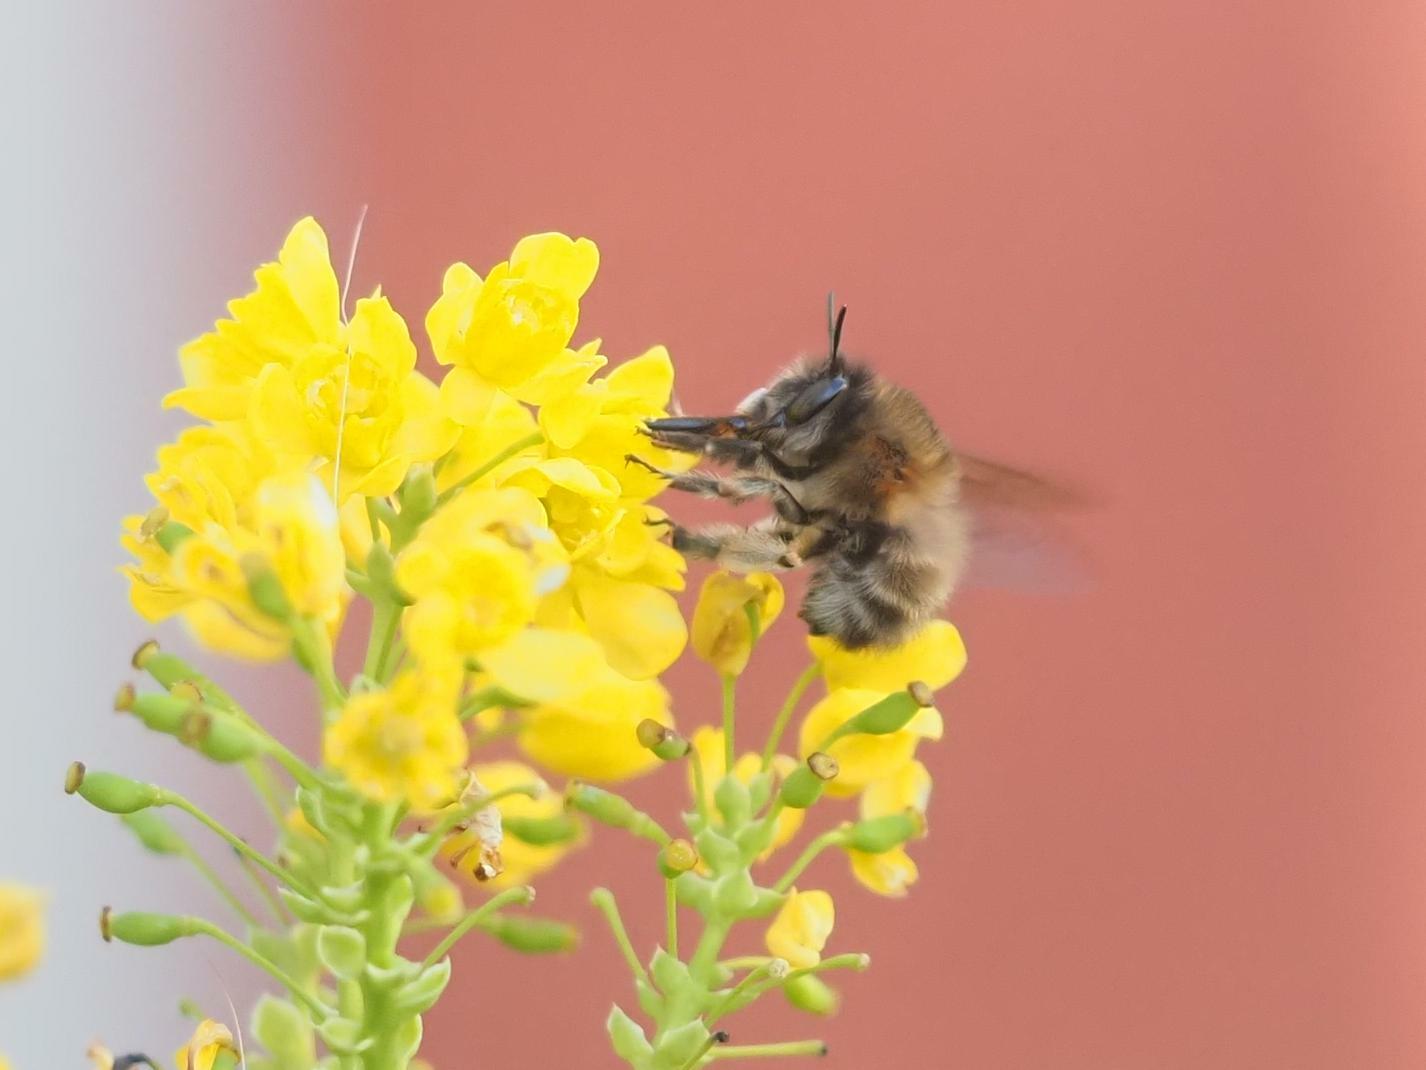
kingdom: Animalia
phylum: Arthropoda
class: Insecta
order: Hymenoptera
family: Apidae
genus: Anthophora
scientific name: Anthophora plumipes
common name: Hairy-footed flower bee
